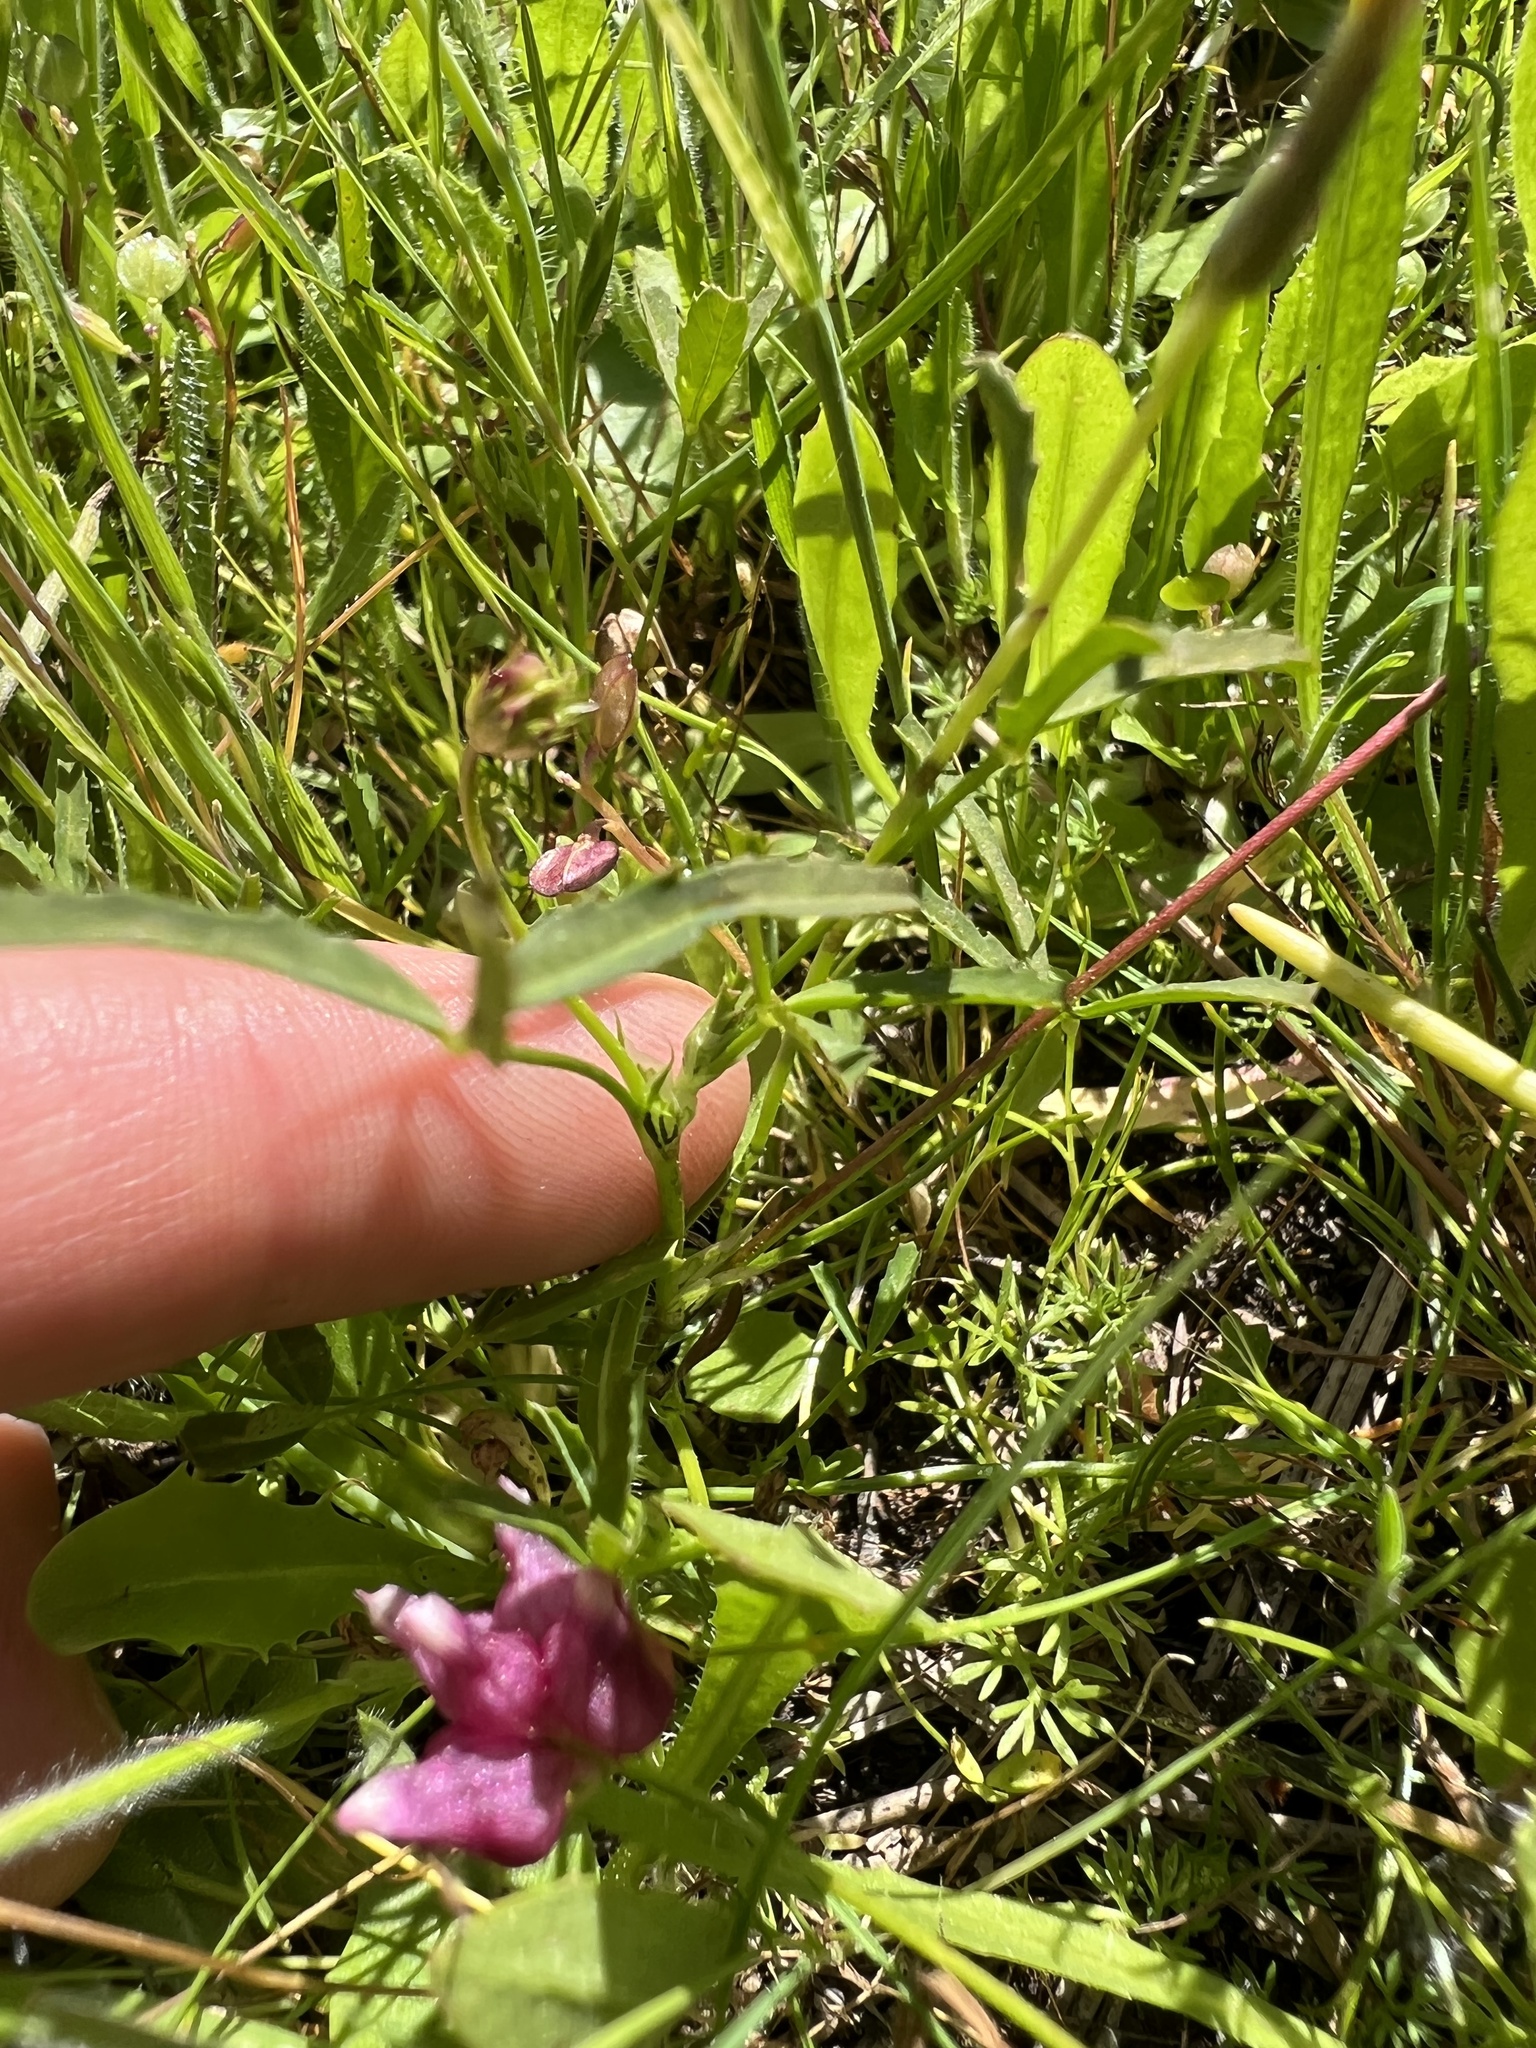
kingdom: Plantae
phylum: Tracheophyta
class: Magnoliopsida
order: Fabales
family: Fabaceae
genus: Trifolium
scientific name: Trifolium depauperatum
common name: Poverty clover
